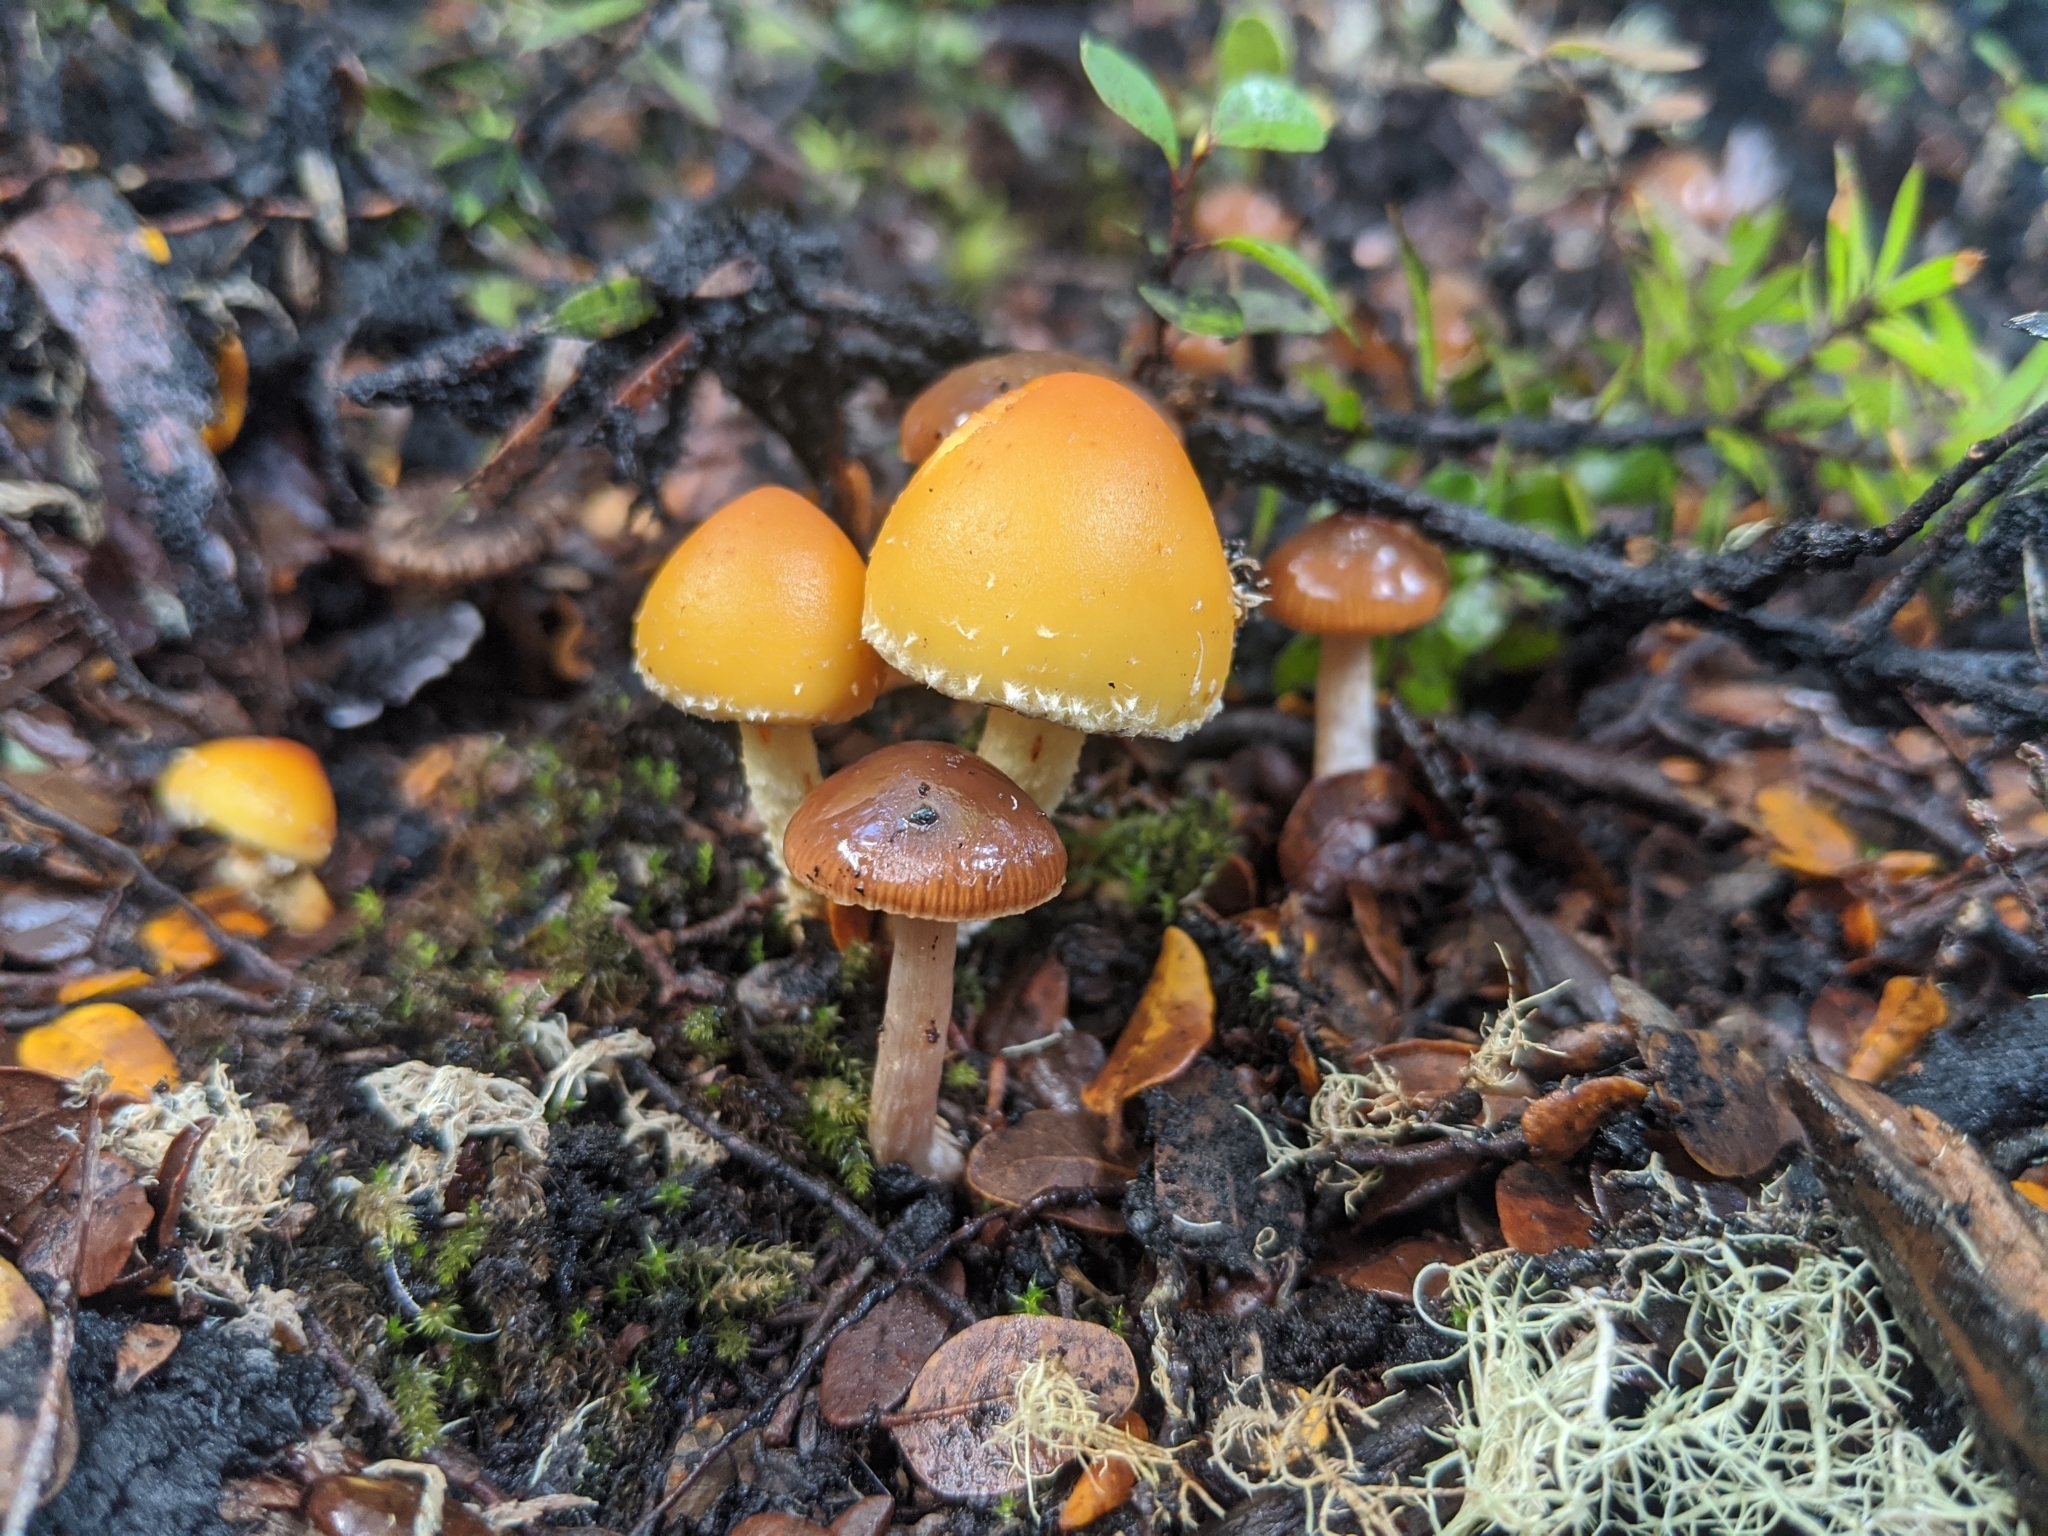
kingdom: Fungi
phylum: Basidiomycota
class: Agaricomycetes
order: Agaricales
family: Strophariaceae
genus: Hypholoma
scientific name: Hypholoma australianum
